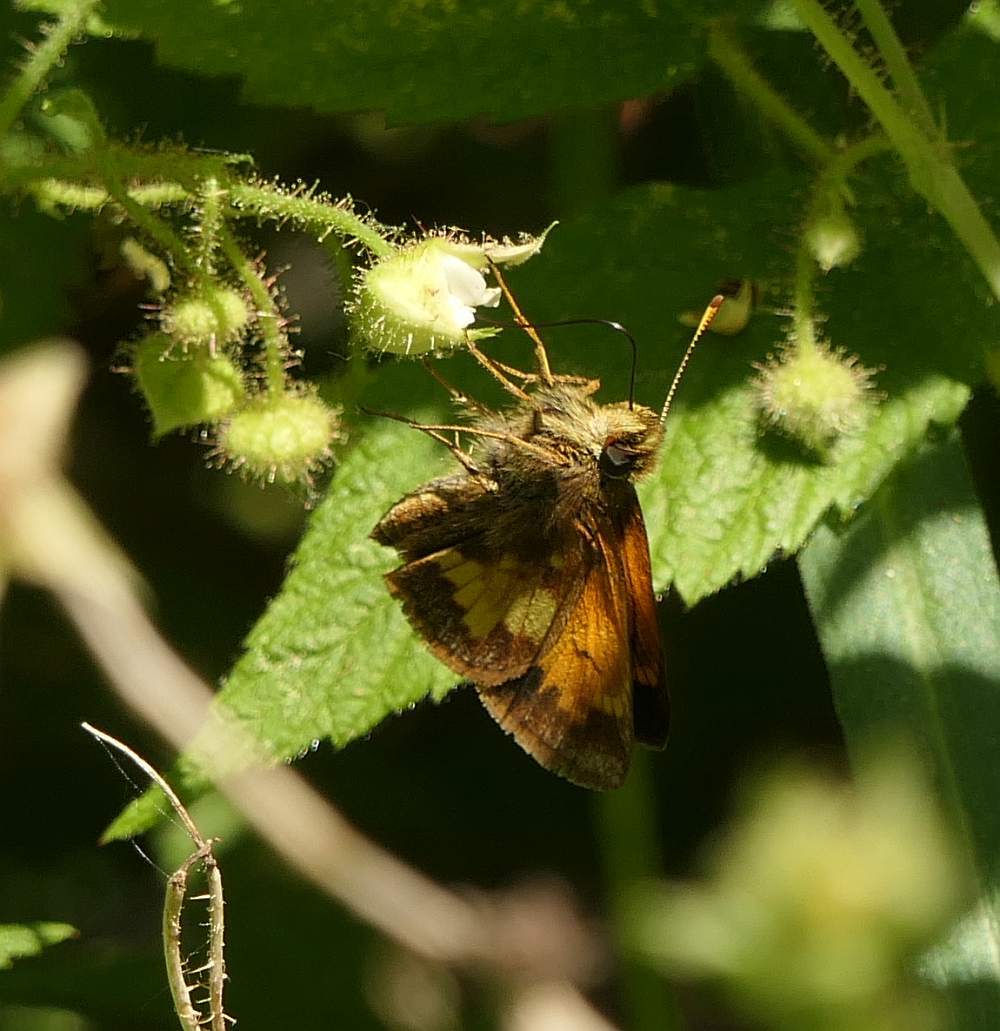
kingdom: Animalia
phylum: Arthropoda
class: Insecta
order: Lepidoptera
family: Hesperiidae
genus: Lon
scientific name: Lon hobomok
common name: Hobomok skipper
